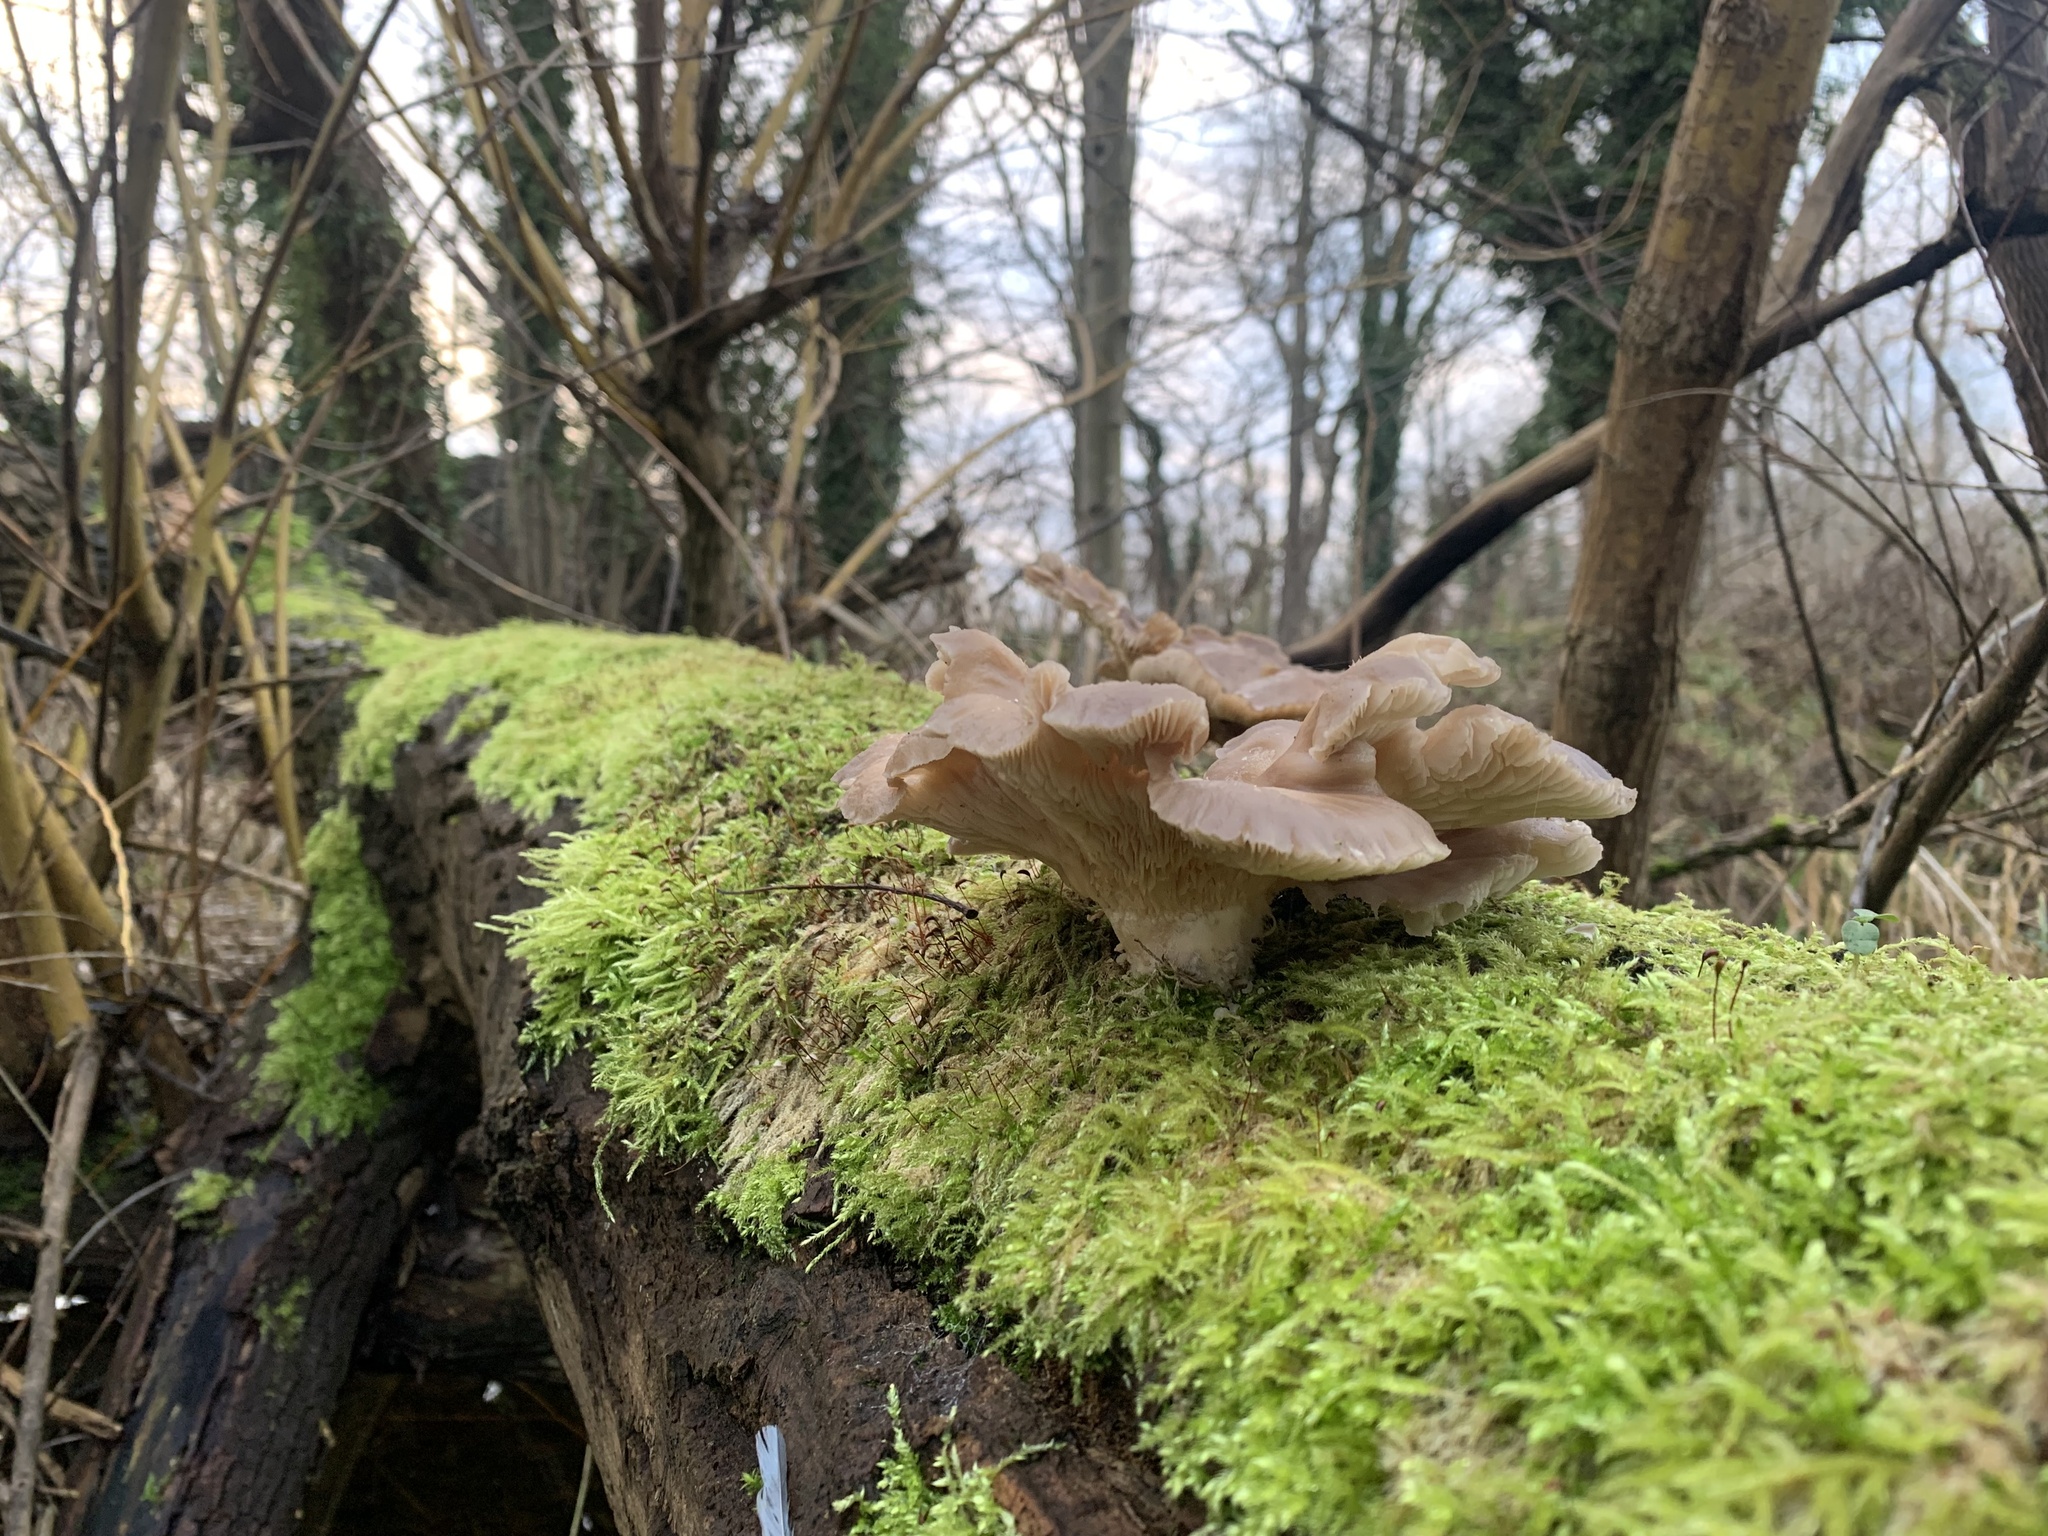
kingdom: Fungi
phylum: Basidiomycota
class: Agaricomycetes
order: Agaricales
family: Pleurotaceae
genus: Pleurotus
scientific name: Pleurotus ostreatus
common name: Oyster mushroom
